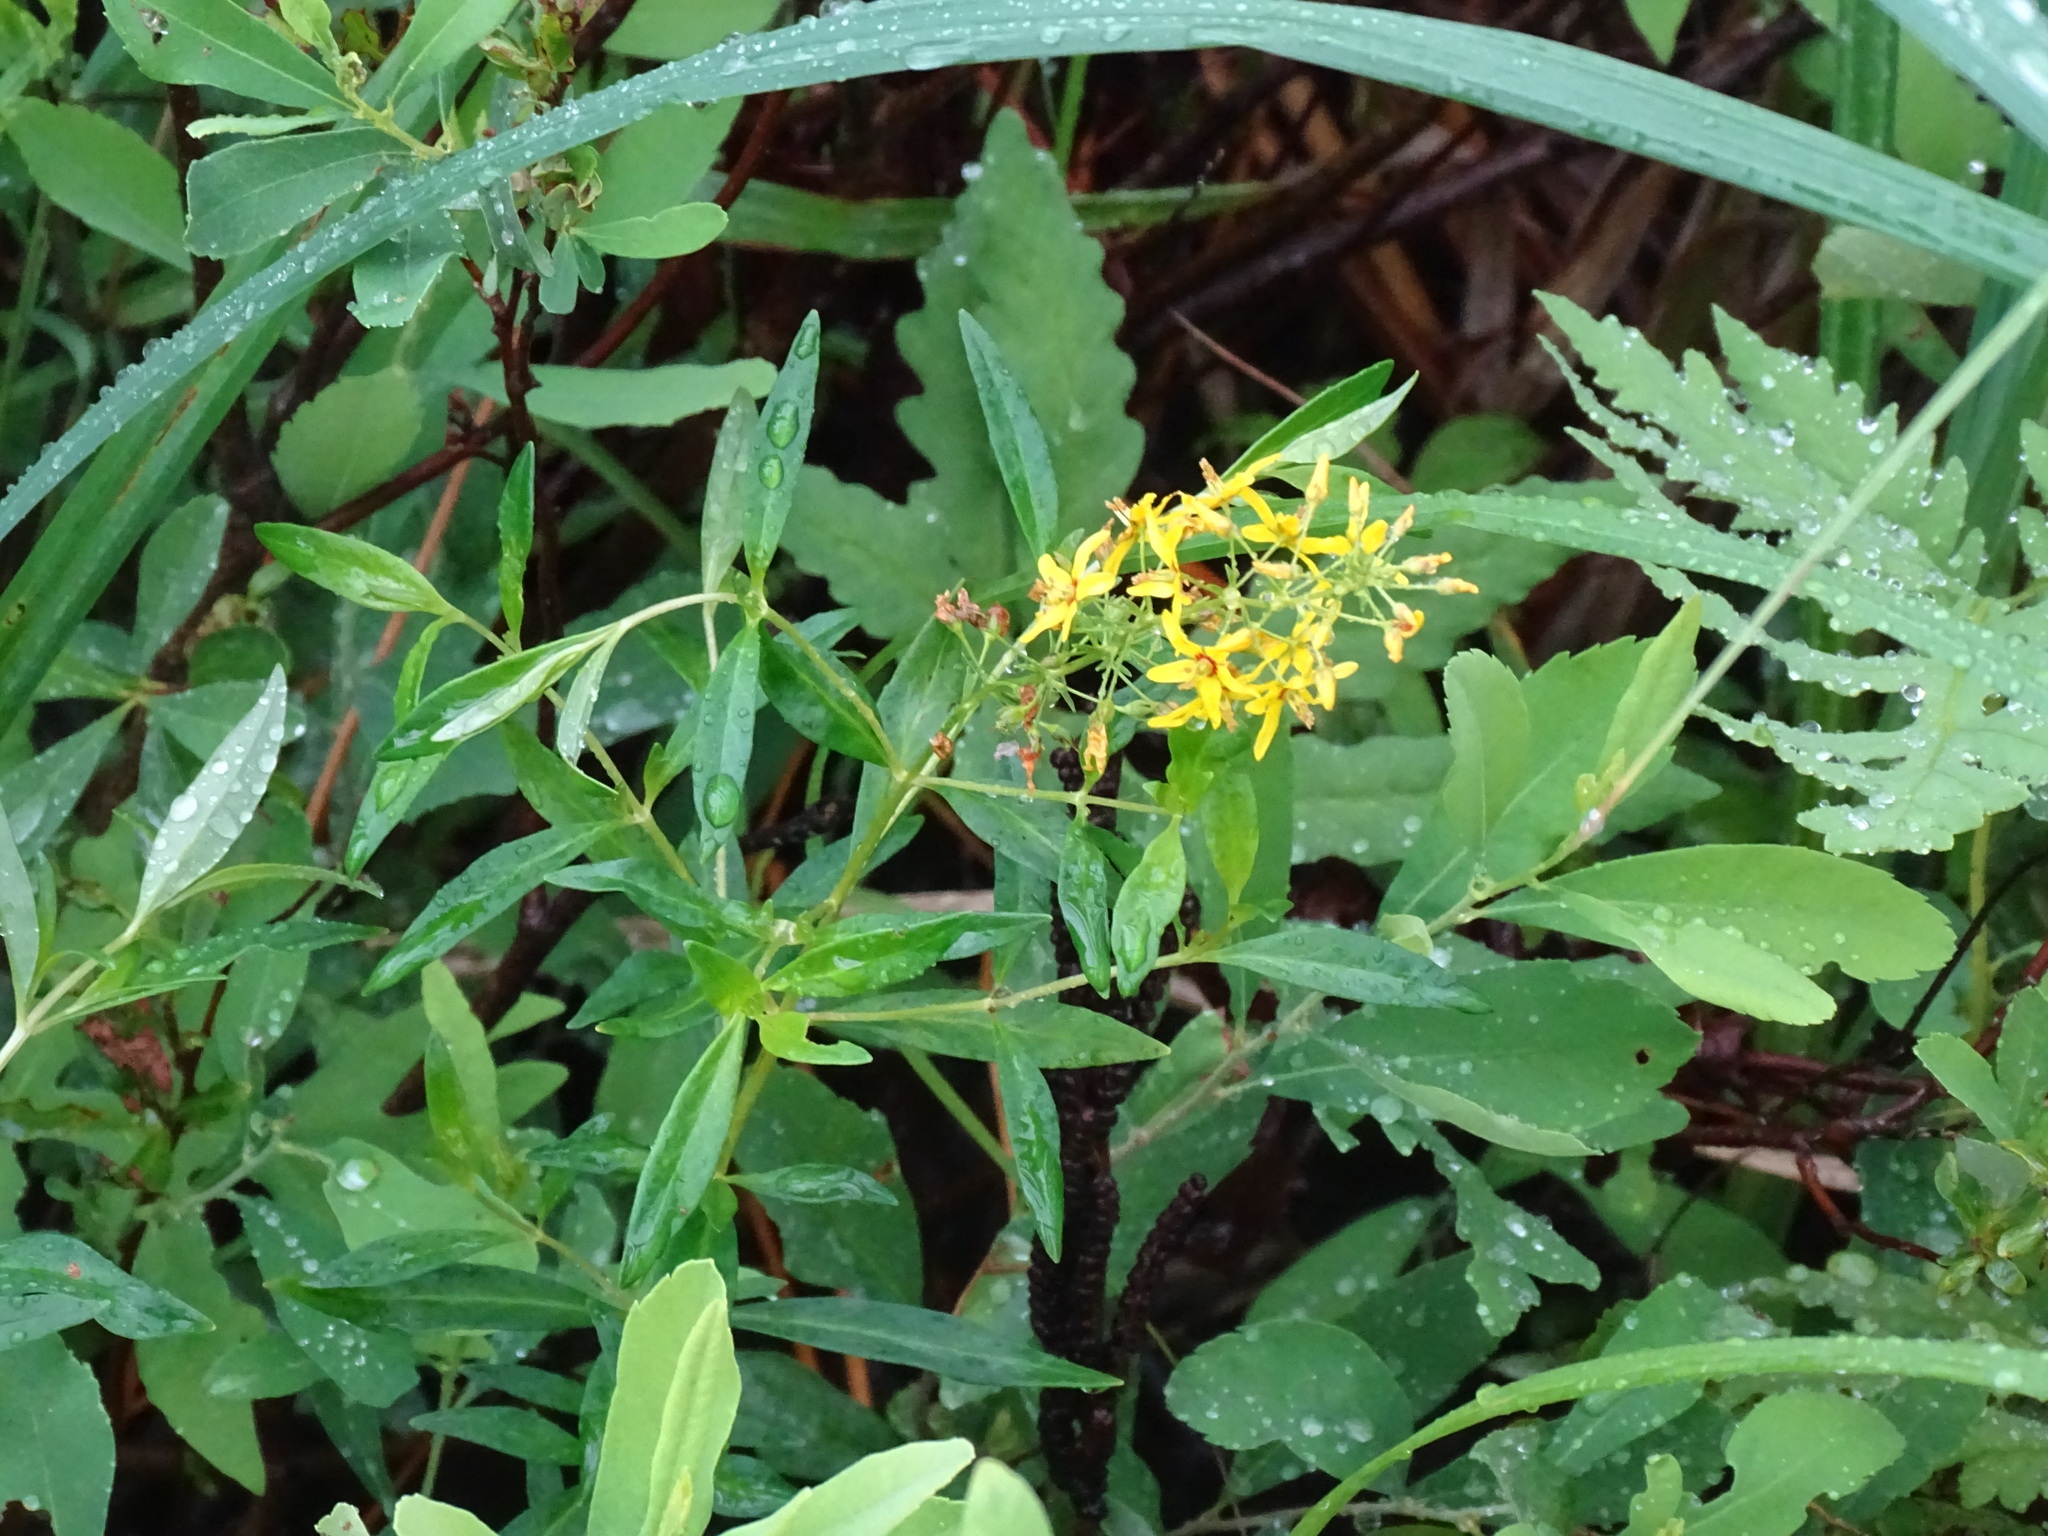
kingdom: Plantae
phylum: Tracheophyta
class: Magnoliopsida
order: Ericales
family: Primulaceae
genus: Lysimachia
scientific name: Lysimachia terrestris
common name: Lake loosestrife
